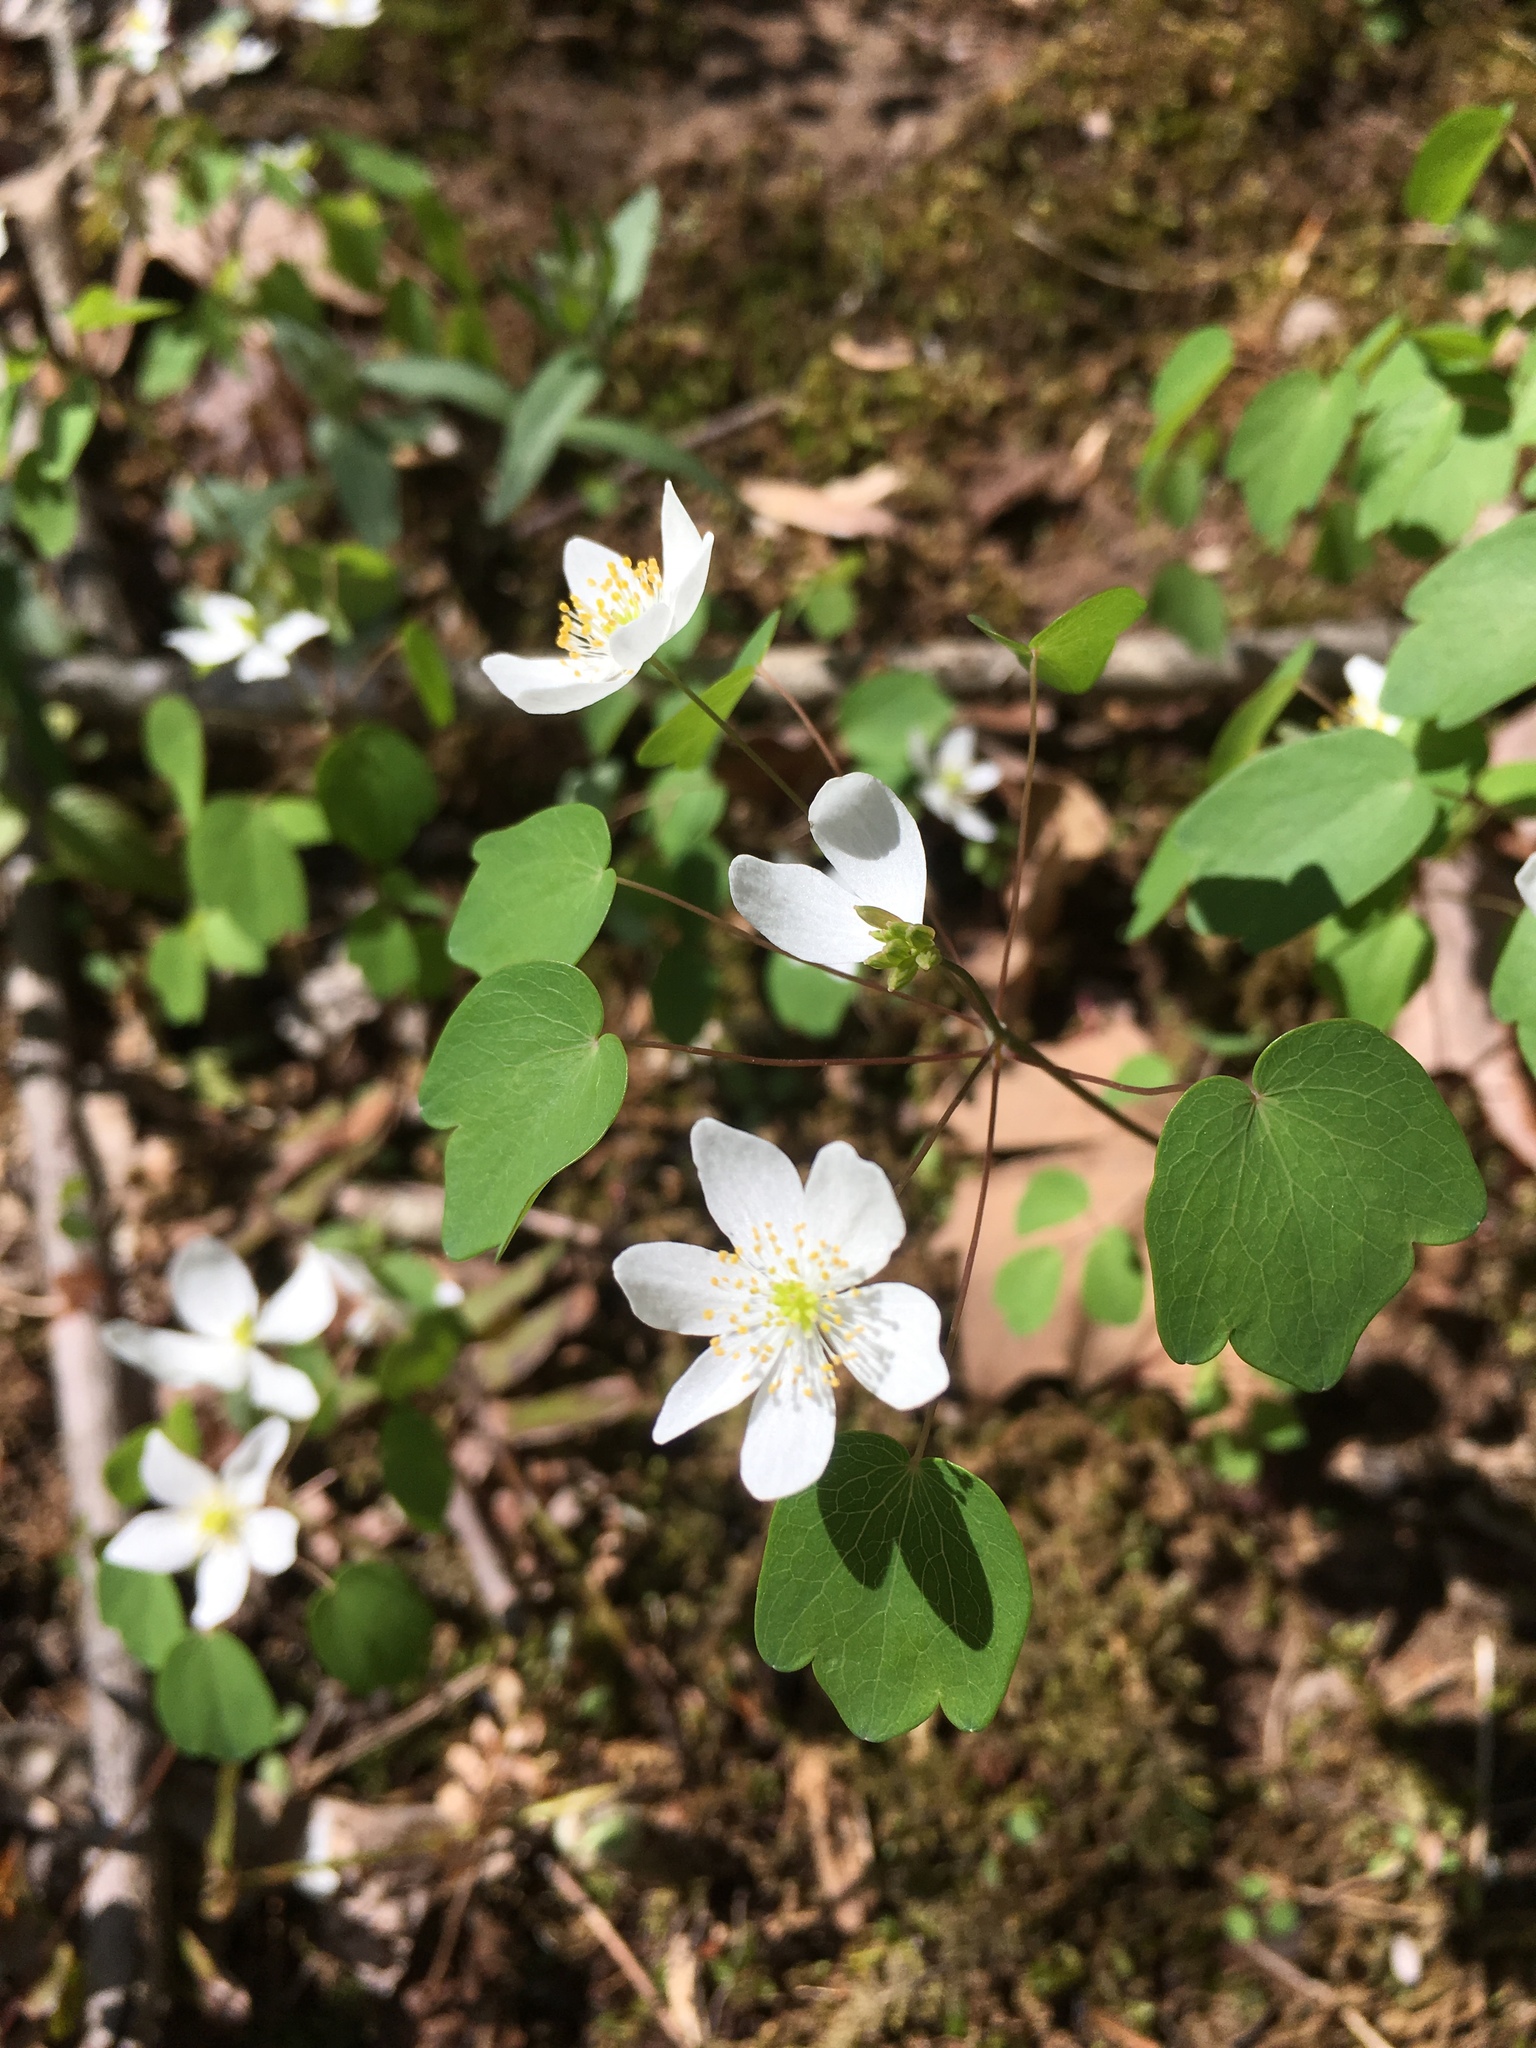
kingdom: Plantae
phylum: Tracheophyta
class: Magnoliopsida
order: Ranunculales
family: Ranunculaceae
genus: Thalictrum
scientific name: Thalictrum thalictroides
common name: Rue-anemone
